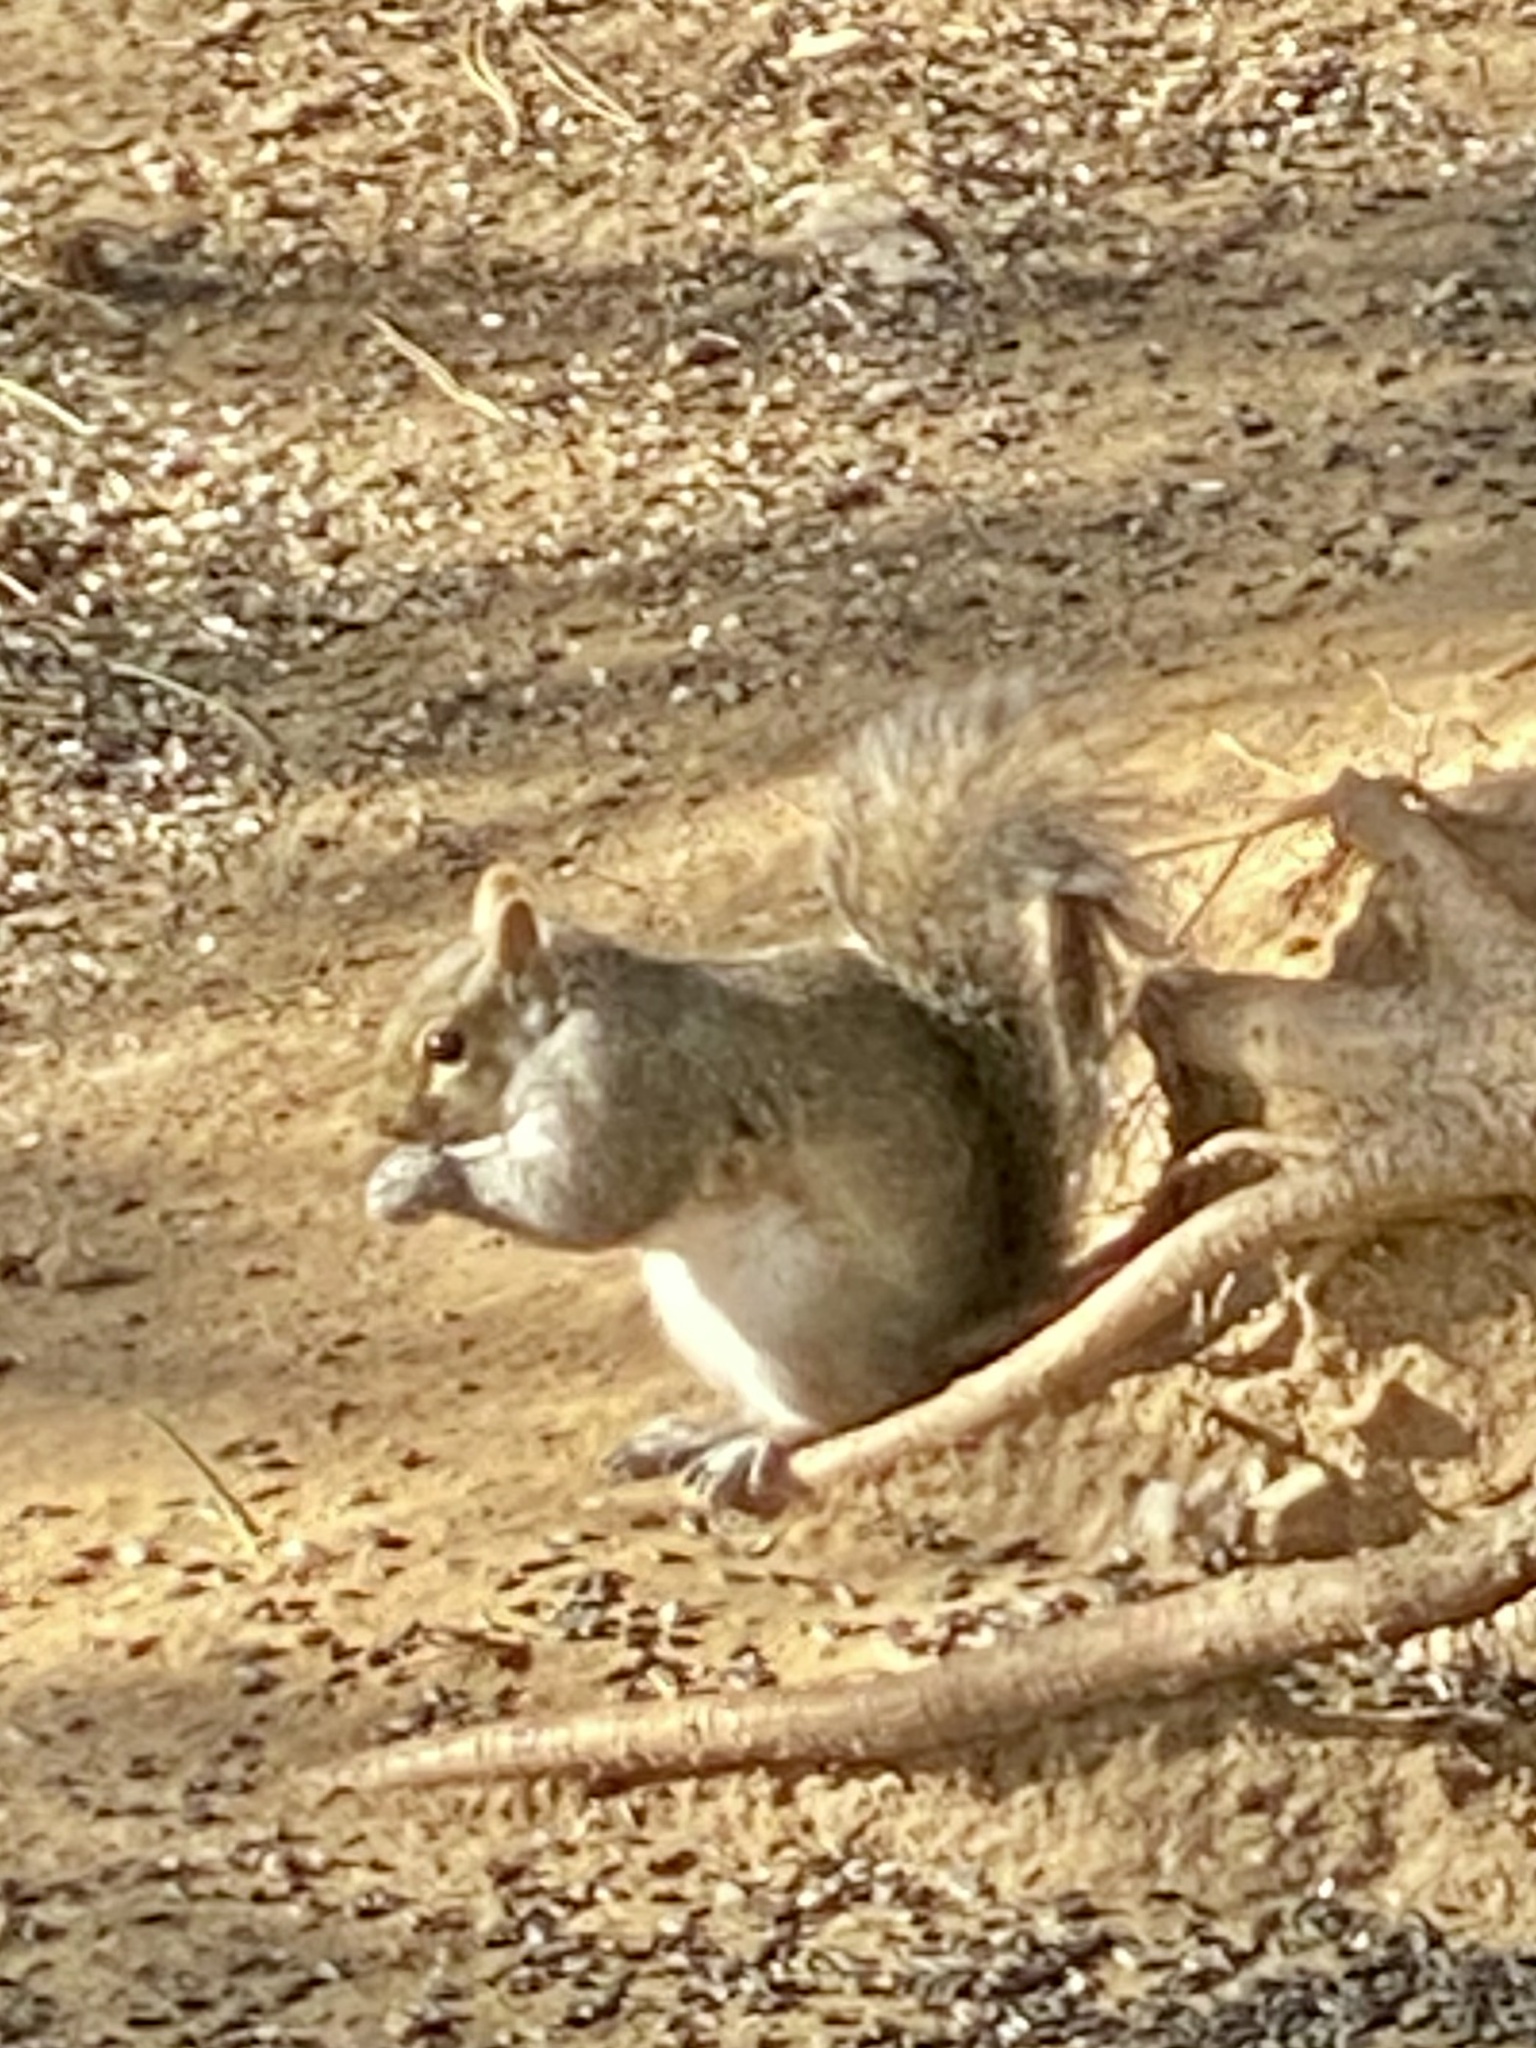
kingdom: Animalia
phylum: Chordata
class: Mammalia
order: Rodentia
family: Sciuridae
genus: Sciurus
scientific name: Sciurus carolinensis
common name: Eastern gray squirrel
